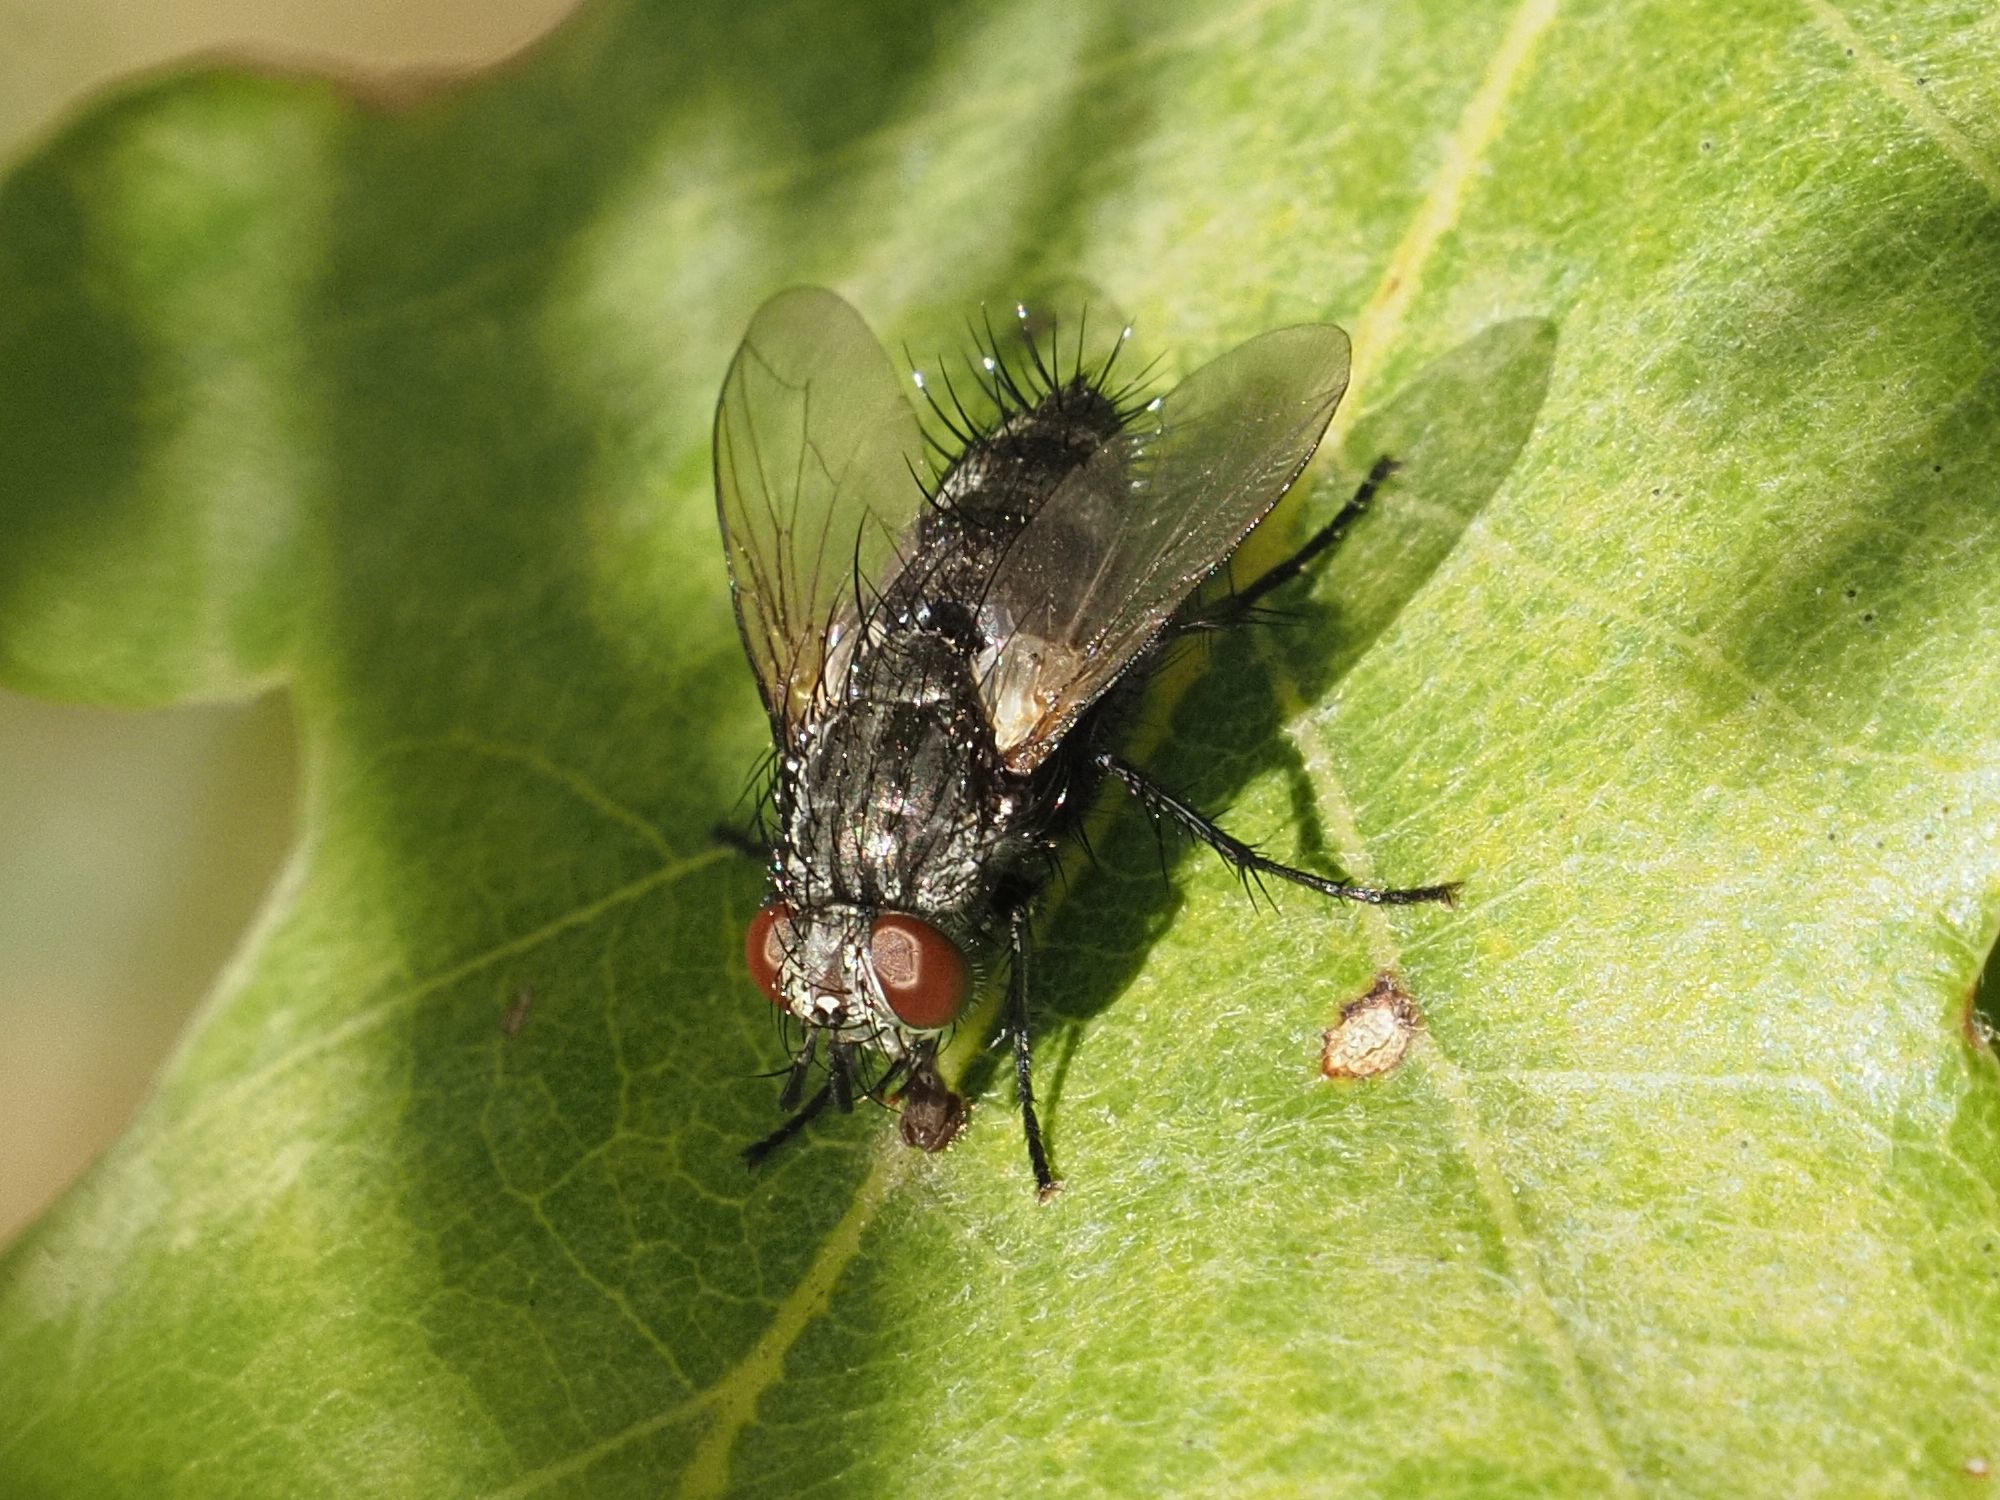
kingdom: Animalia
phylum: Arthropoda
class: Insecta
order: Diptera
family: Tachinidae
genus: Voria
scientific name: Voria ruralis
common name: Parasitic fly
